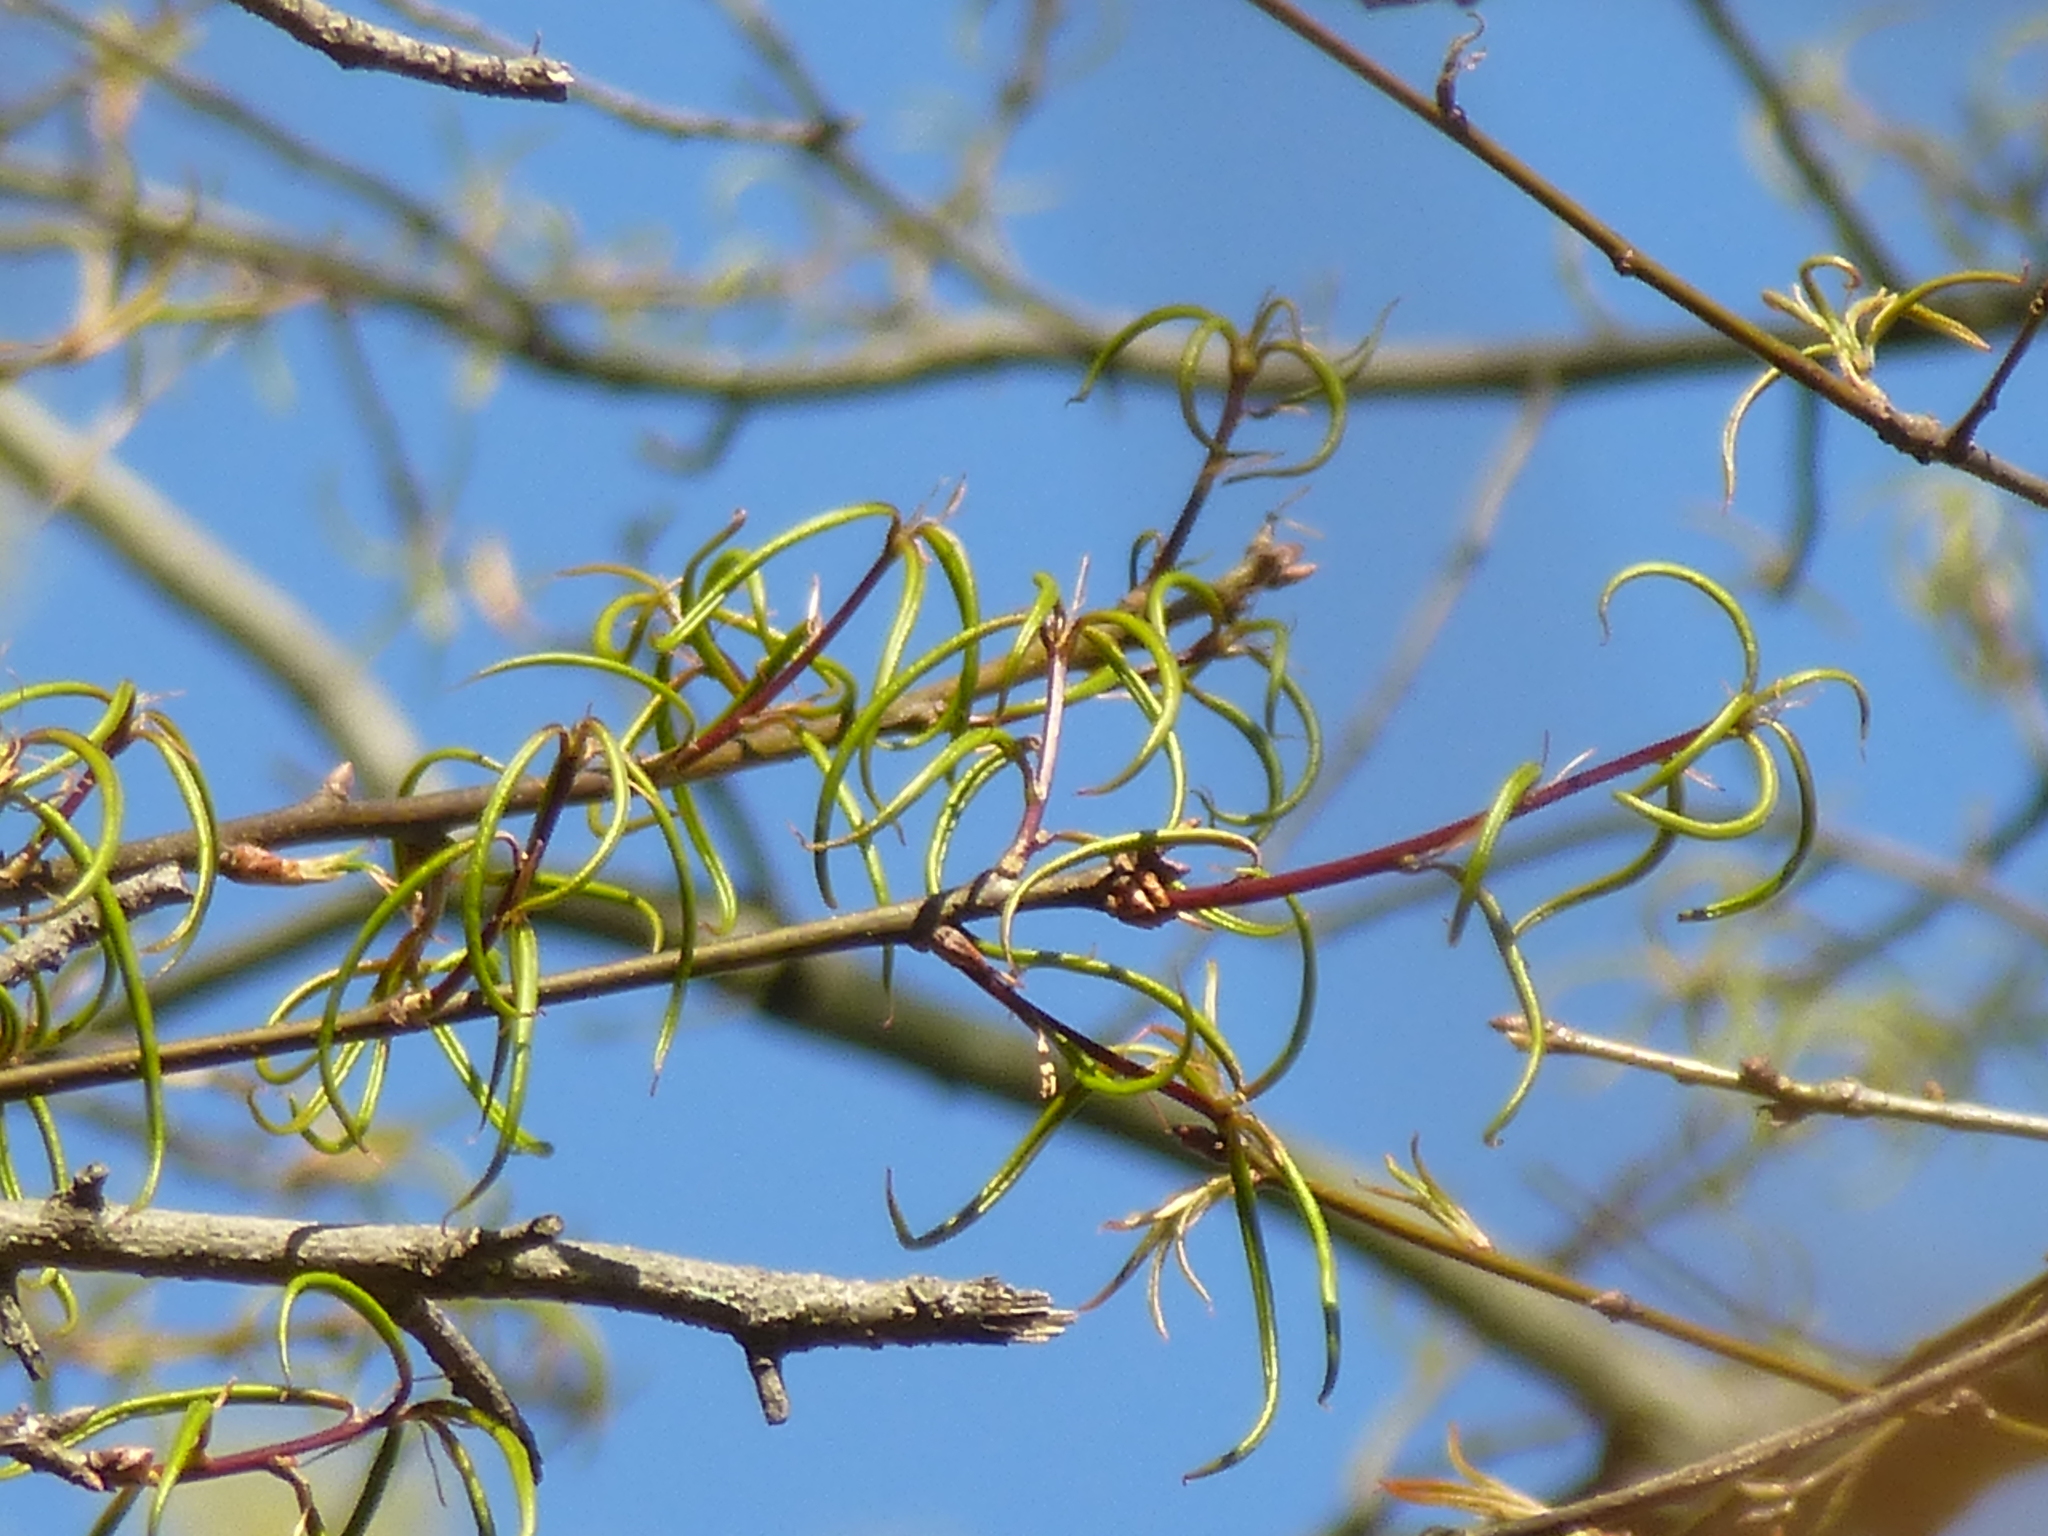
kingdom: Plantae
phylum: Tracheophyta
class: Magnoliopsida
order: Fagales
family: Fagaceae
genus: Quercus
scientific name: Quercus phellos
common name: Willow oak
